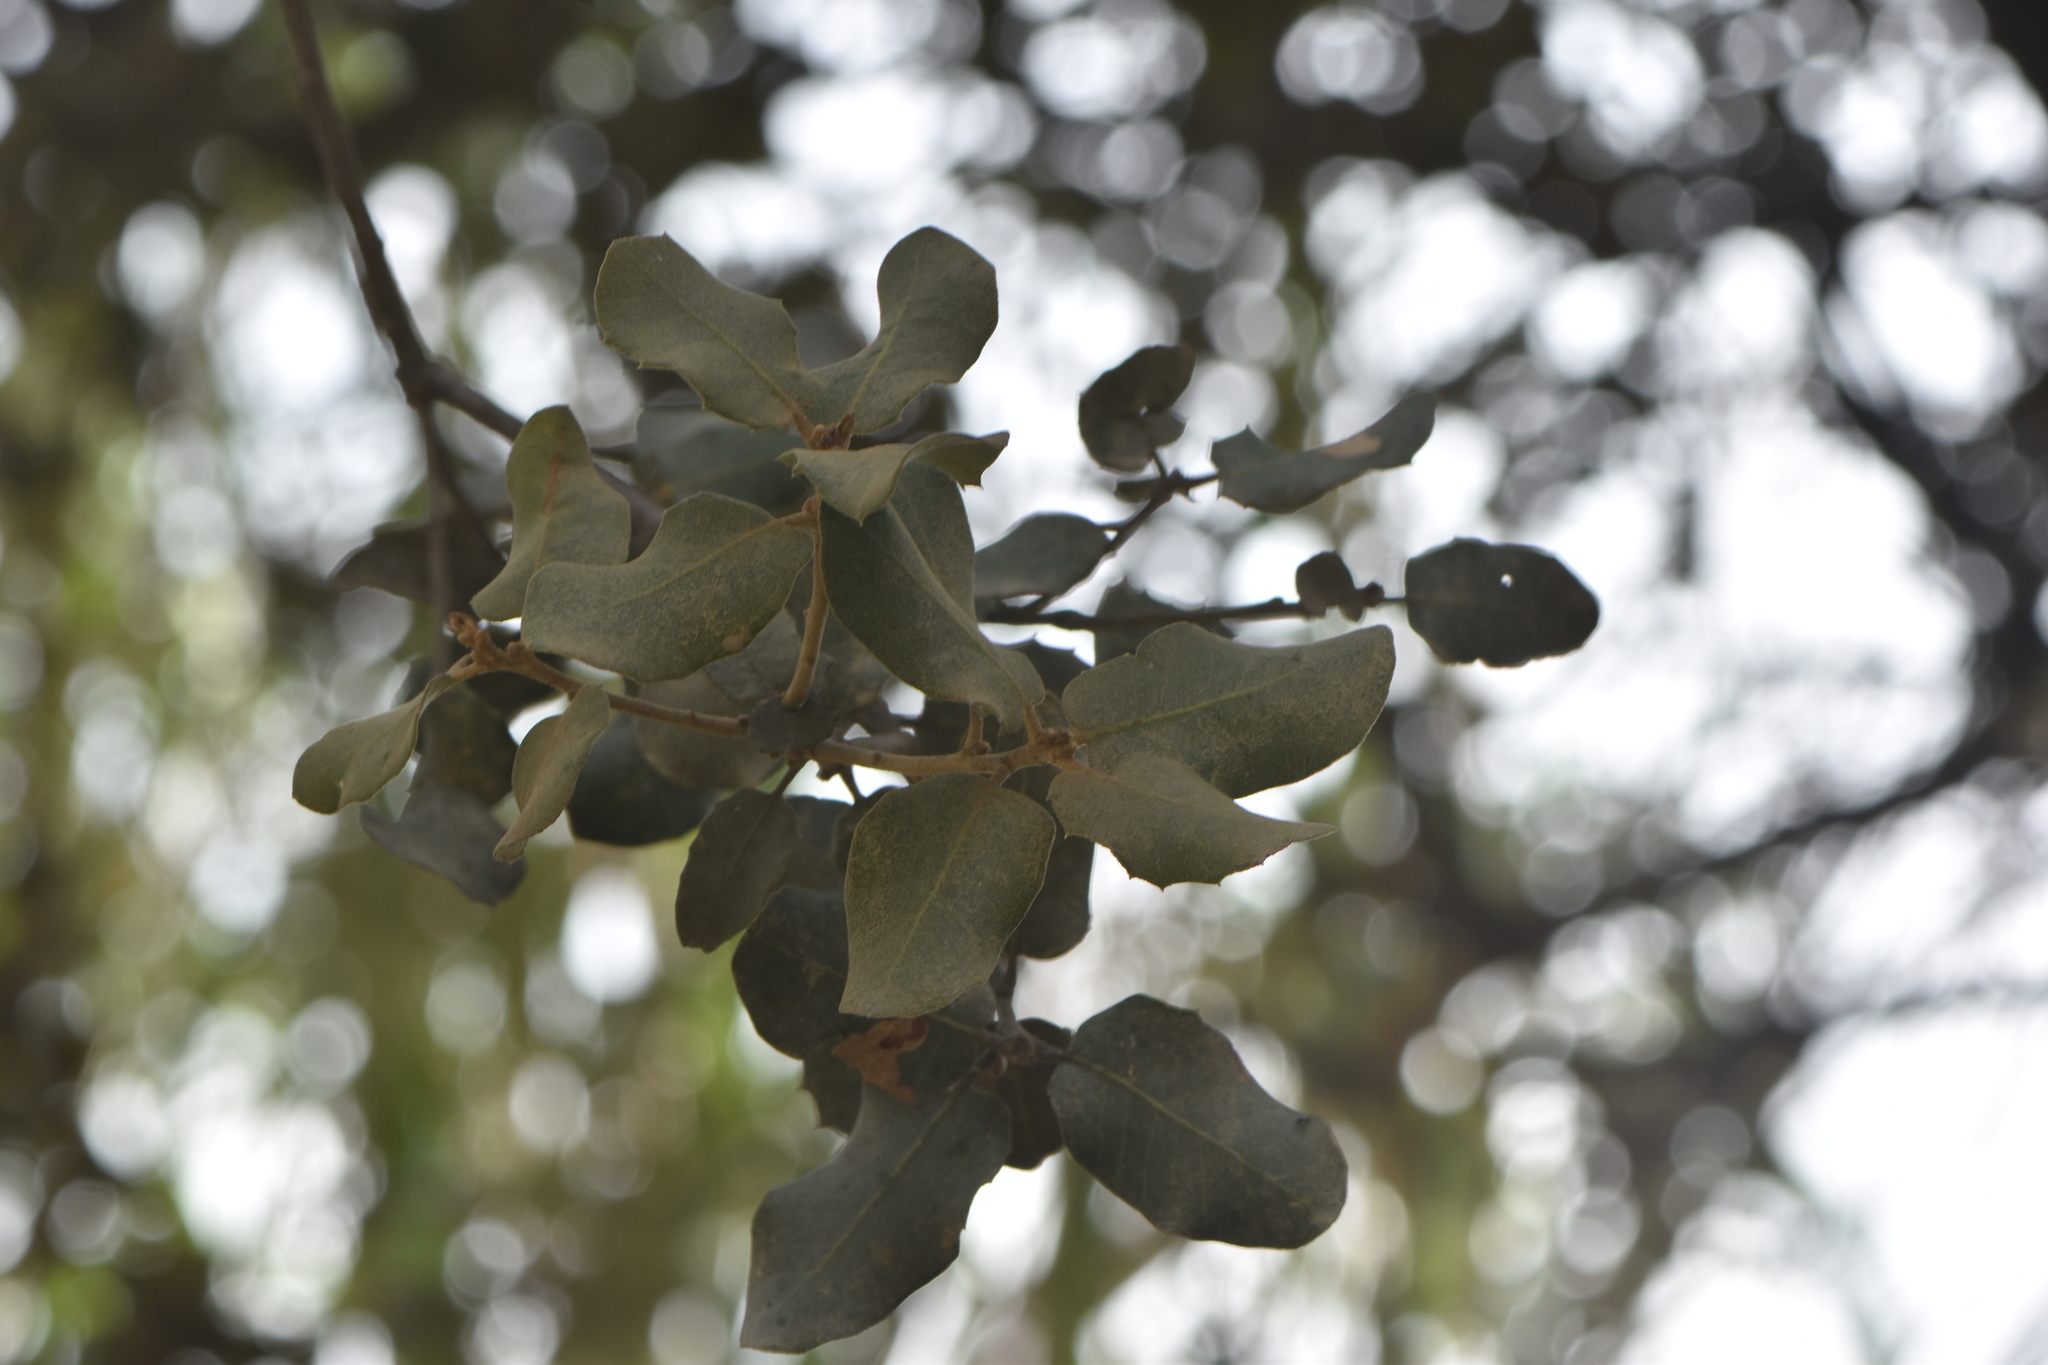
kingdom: Plantae
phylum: Tracheophyta
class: Magnoliopsida
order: Fagales
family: Fagaceae
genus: Quercus
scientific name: Quercus rotundifolia
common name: Holm oak
